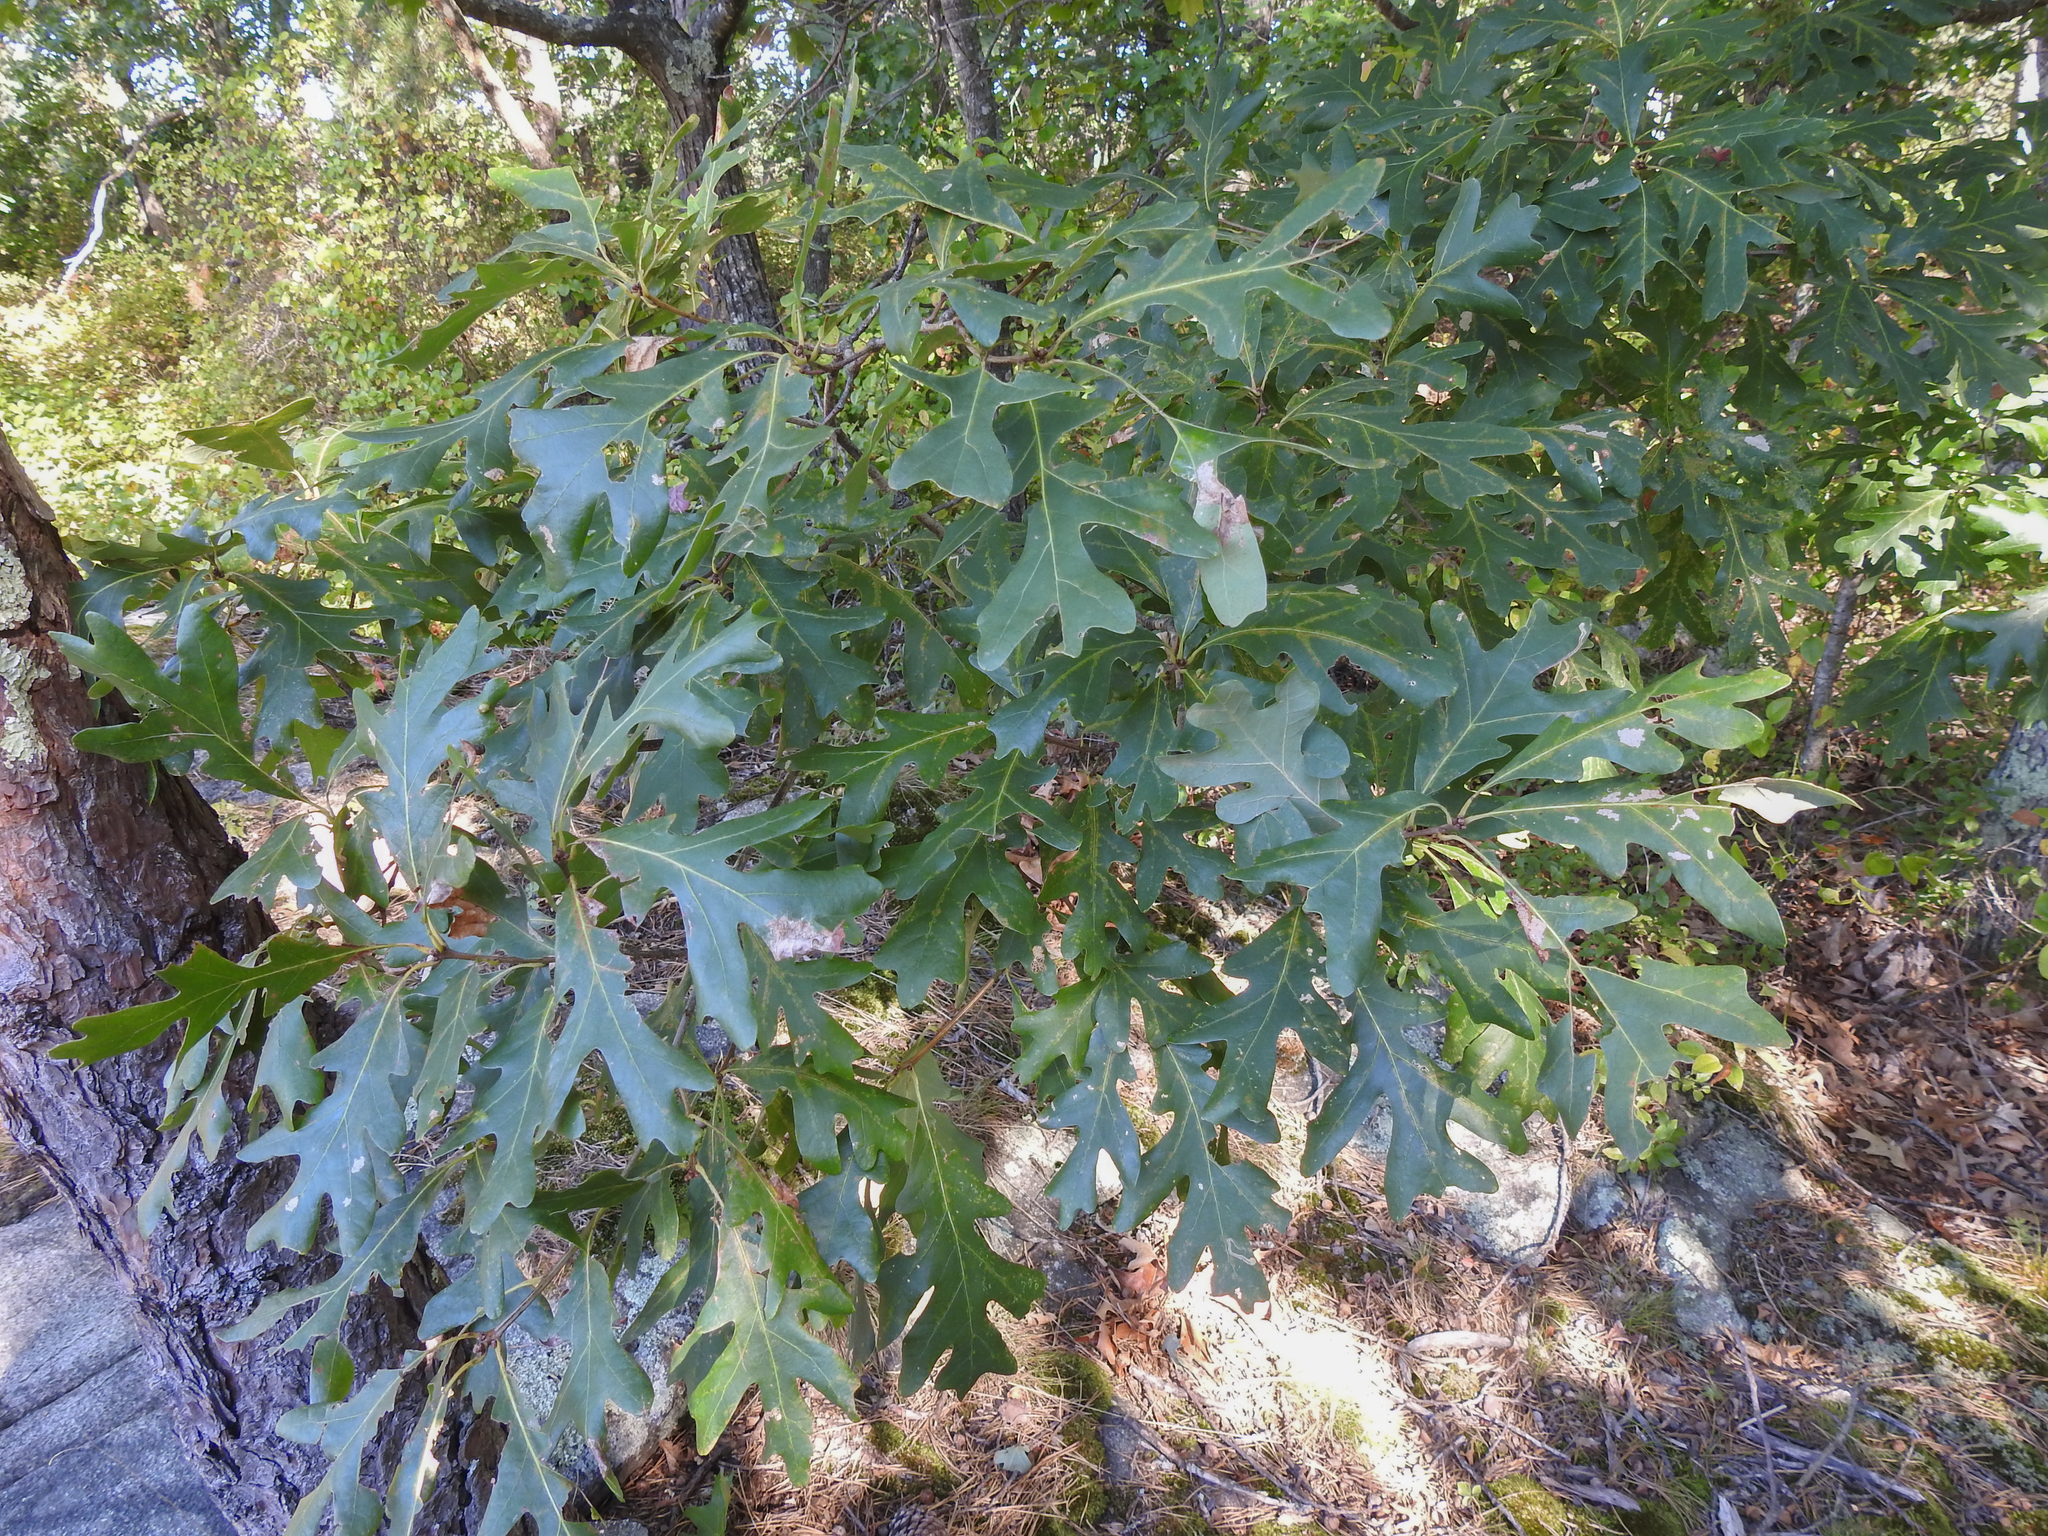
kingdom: Plantae
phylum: Tracheophyta
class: Magnoliopsida
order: Fagales
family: Fagaceae
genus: Quercus
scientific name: Quercus alba
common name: White oak
